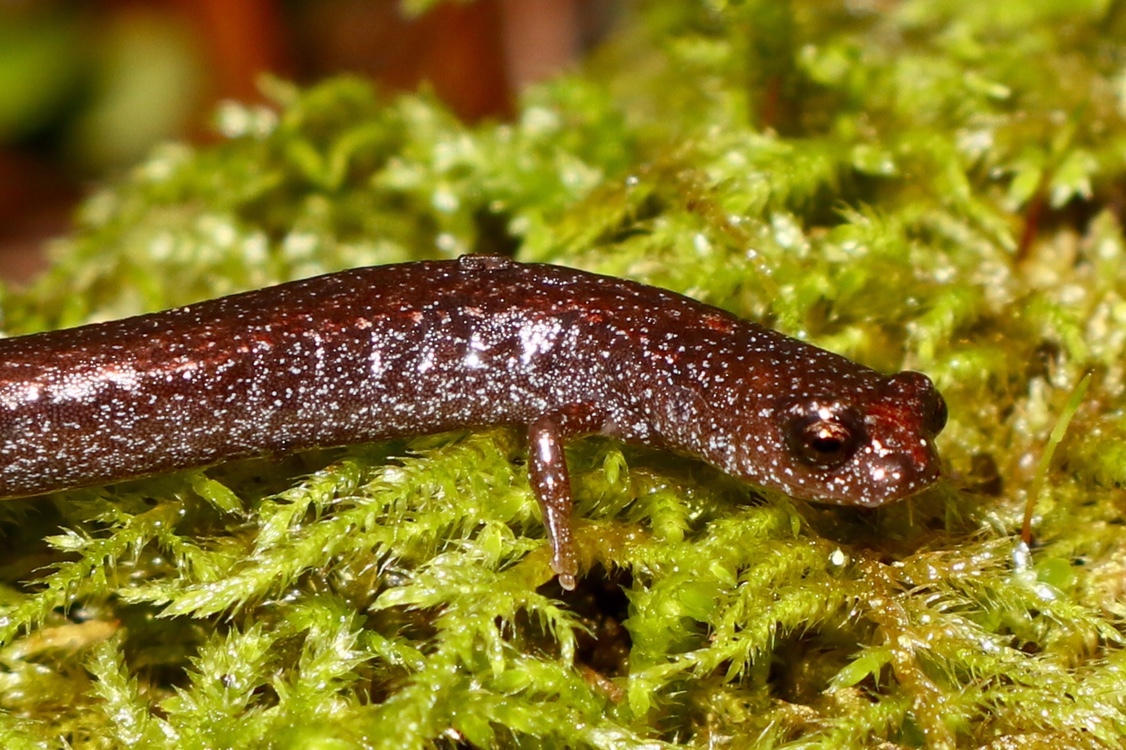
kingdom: Animalia
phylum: Chordata
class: Amphibia
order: Caudata
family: Plethodontidae
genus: Batrachoseps
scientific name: Batrachoseps luciae
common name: Santa lucia mountains slender salamander
